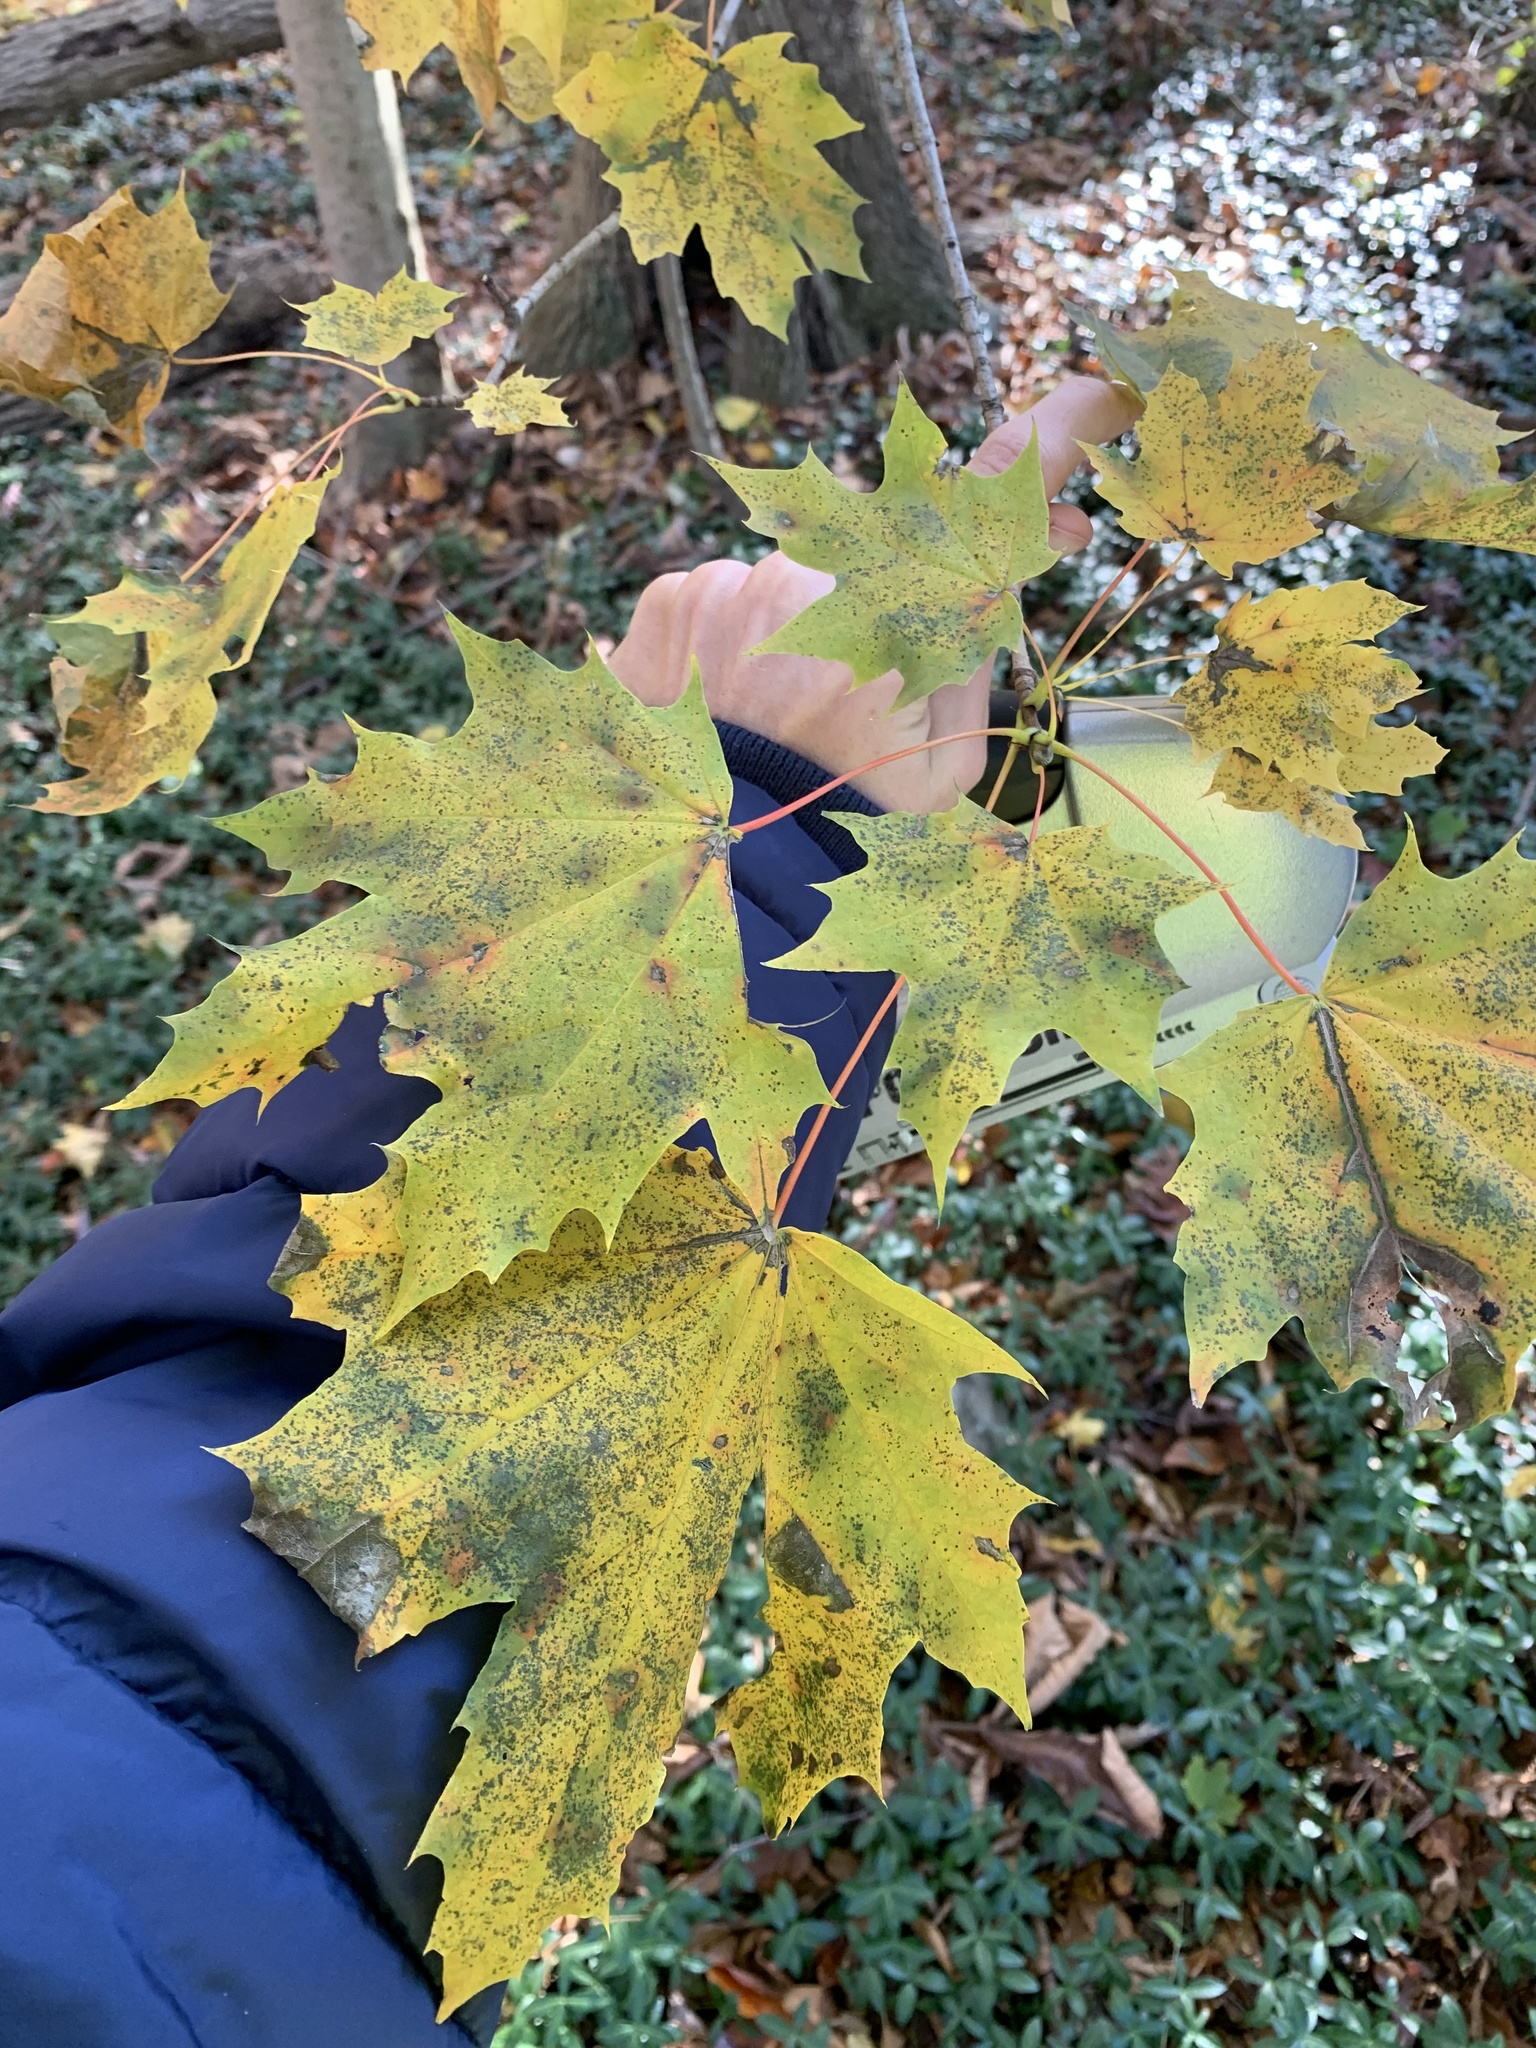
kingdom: Plantae
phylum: Tracheophyta
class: Magnoliopsida
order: Sapindales
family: Sapindaceae
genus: Acer
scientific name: Acer platanoides
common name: Norway maple
